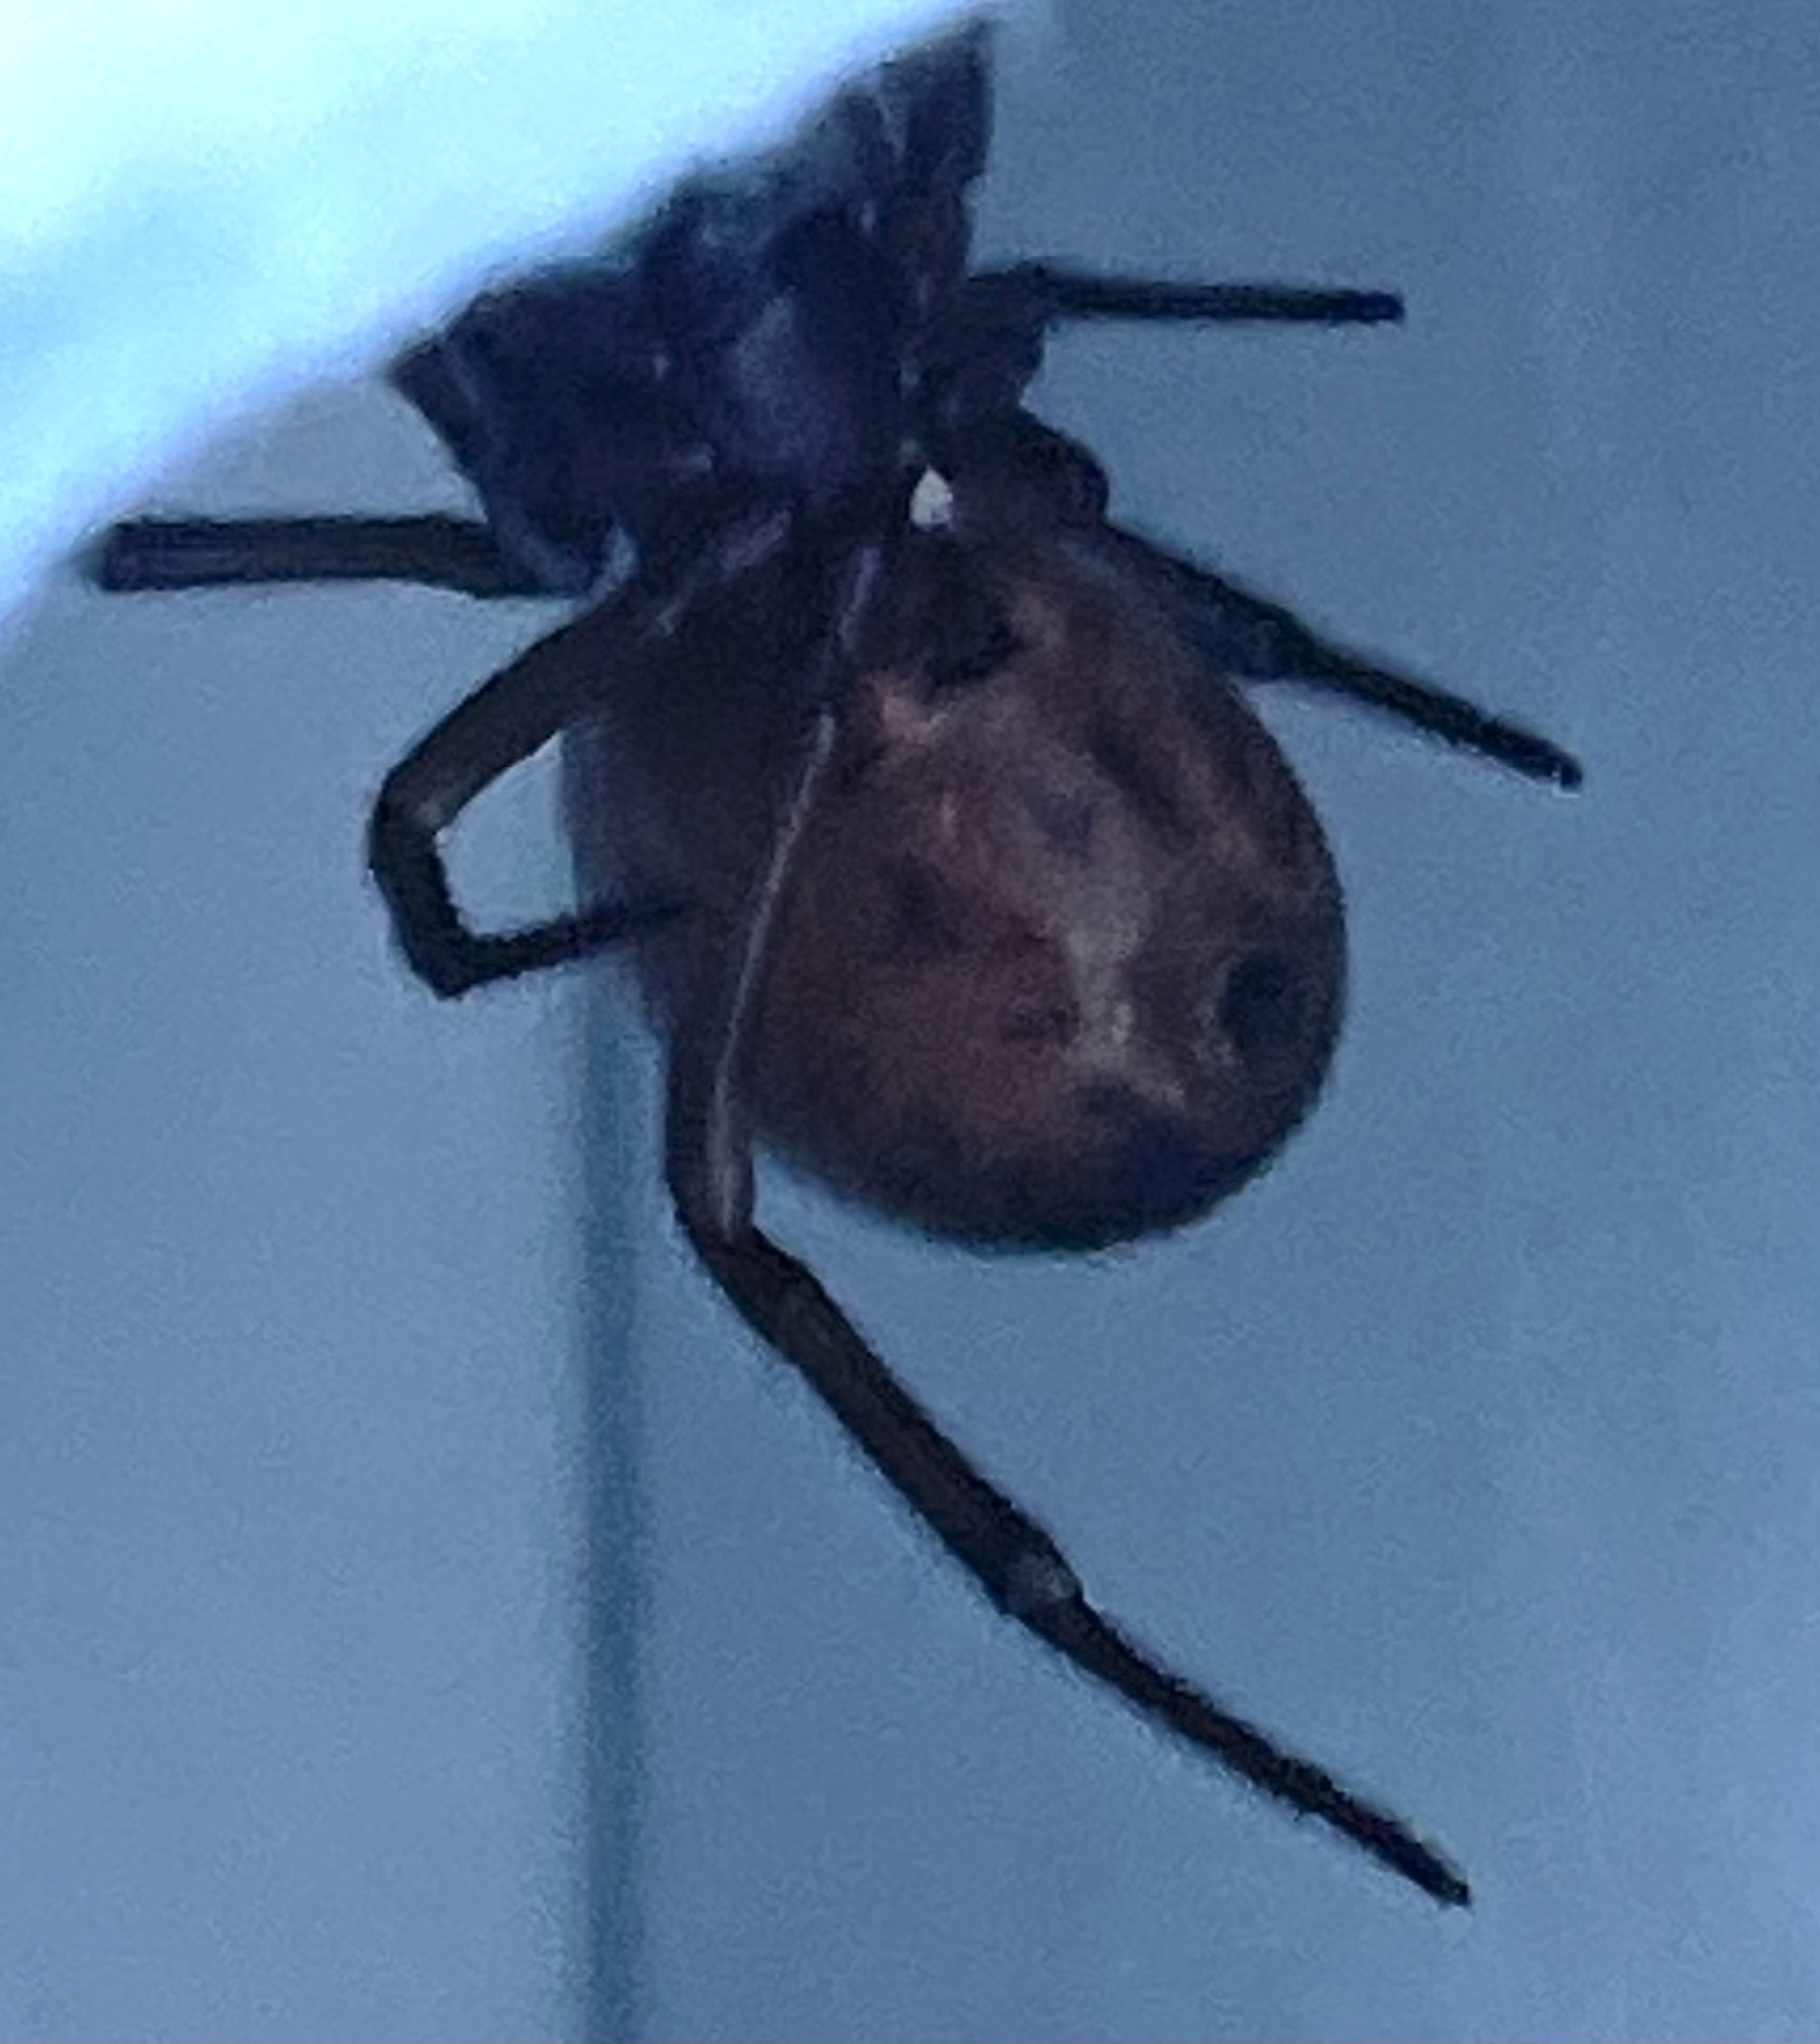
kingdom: Animalia
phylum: Arthropoda
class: Arachnida
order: Araneae
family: Theridiidae
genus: Steatoda
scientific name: Steatoda nobilis
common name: Cobweb weaver
